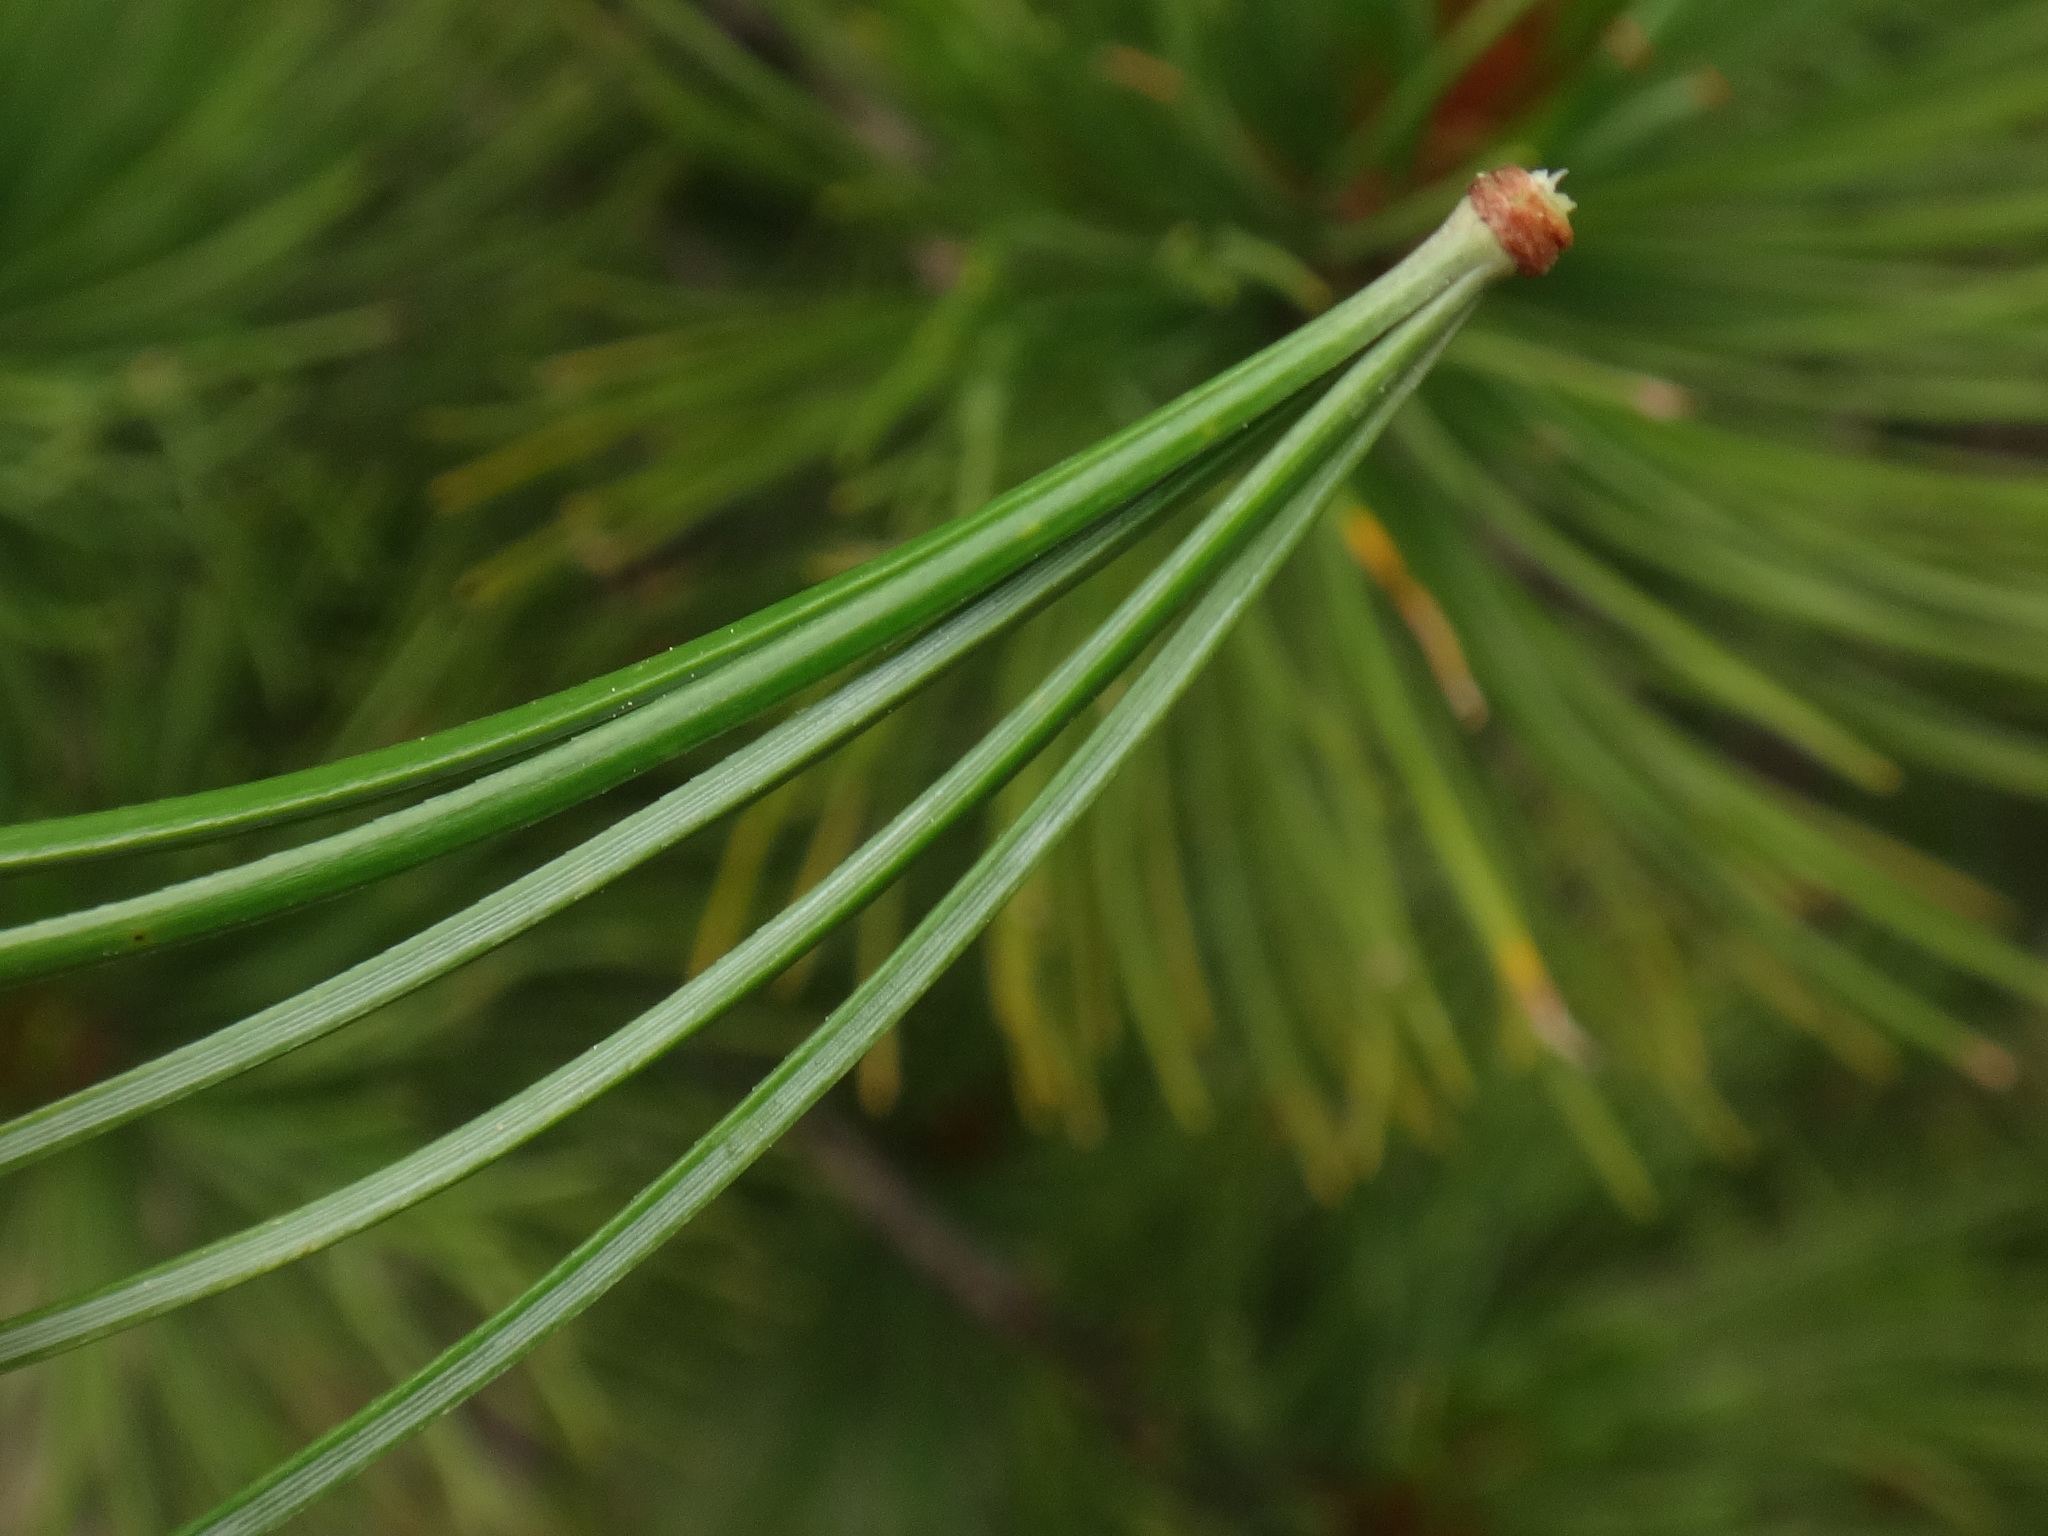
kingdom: Plantae
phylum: Tracheophyta
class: Pinopsida
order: Pinales
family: Pinaceae
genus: Pinus
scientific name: Pinus cembra
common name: Arolla pine
